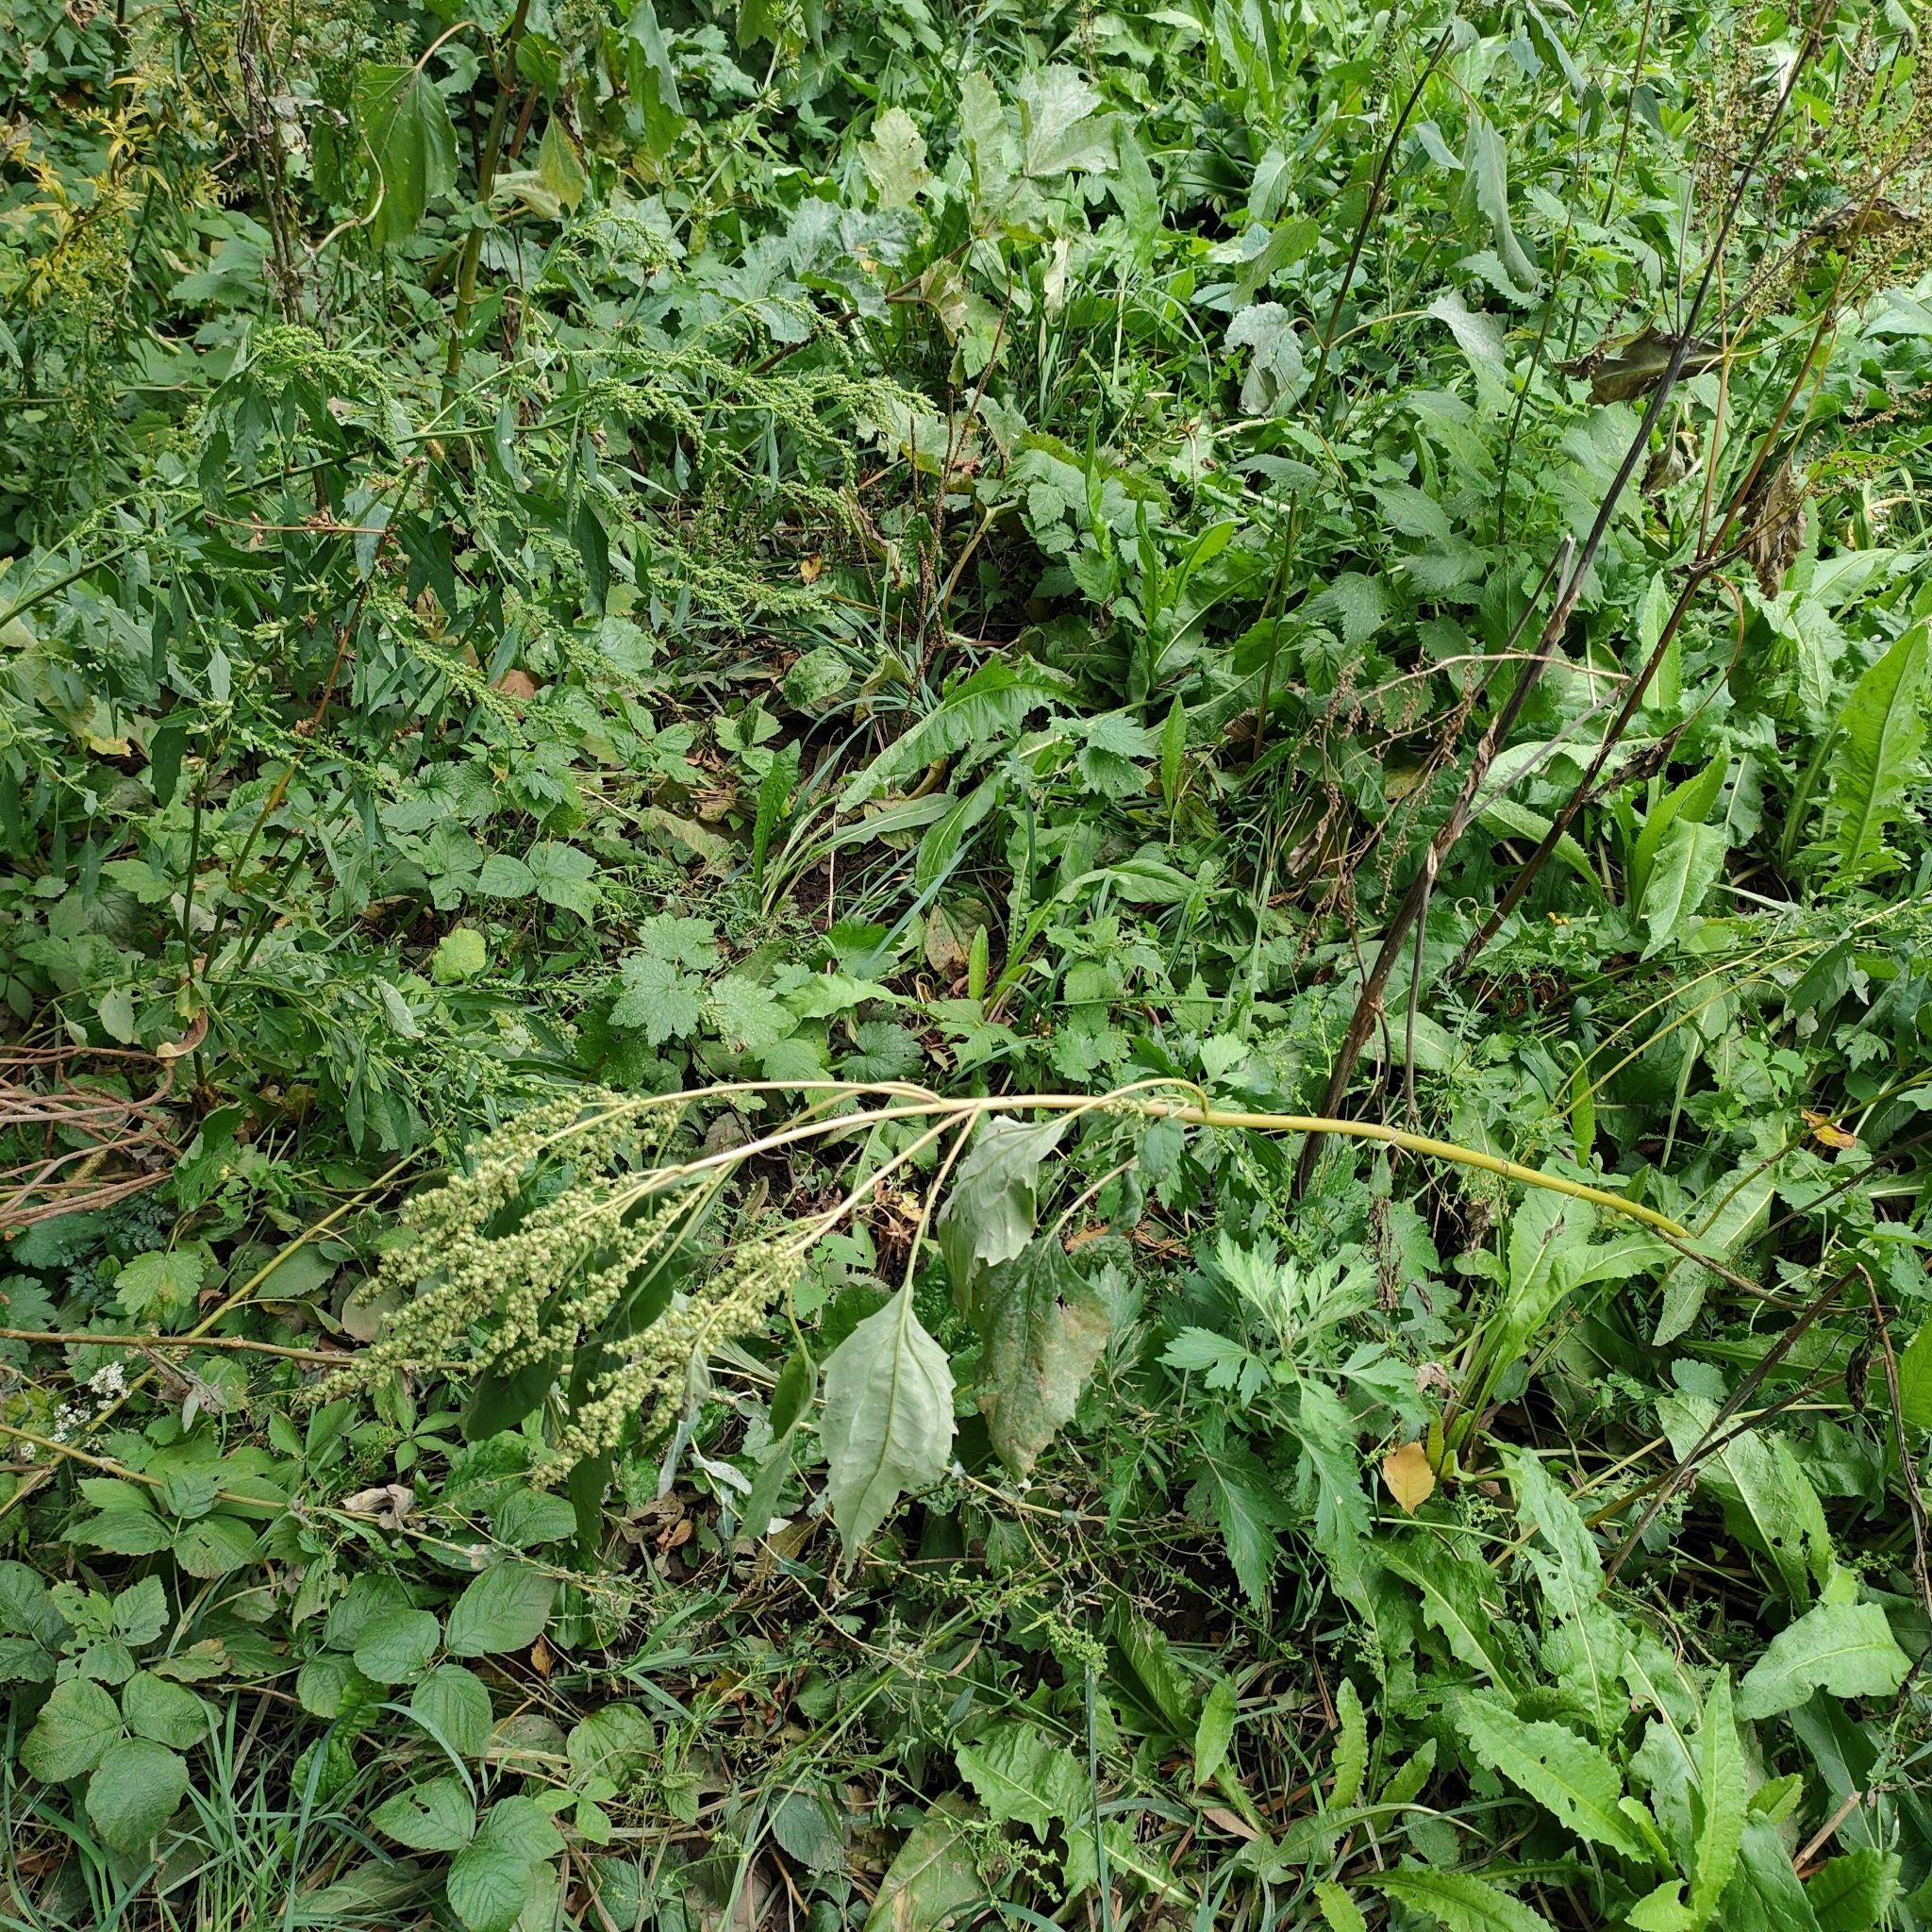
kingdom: Plantae
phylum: Tracheophyta
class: Magnoliopsida
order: Asterales
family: Asteraceae
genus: Cyclachaena
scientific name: Cyclachaena xanthiifolia
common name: Giant sumpweed
